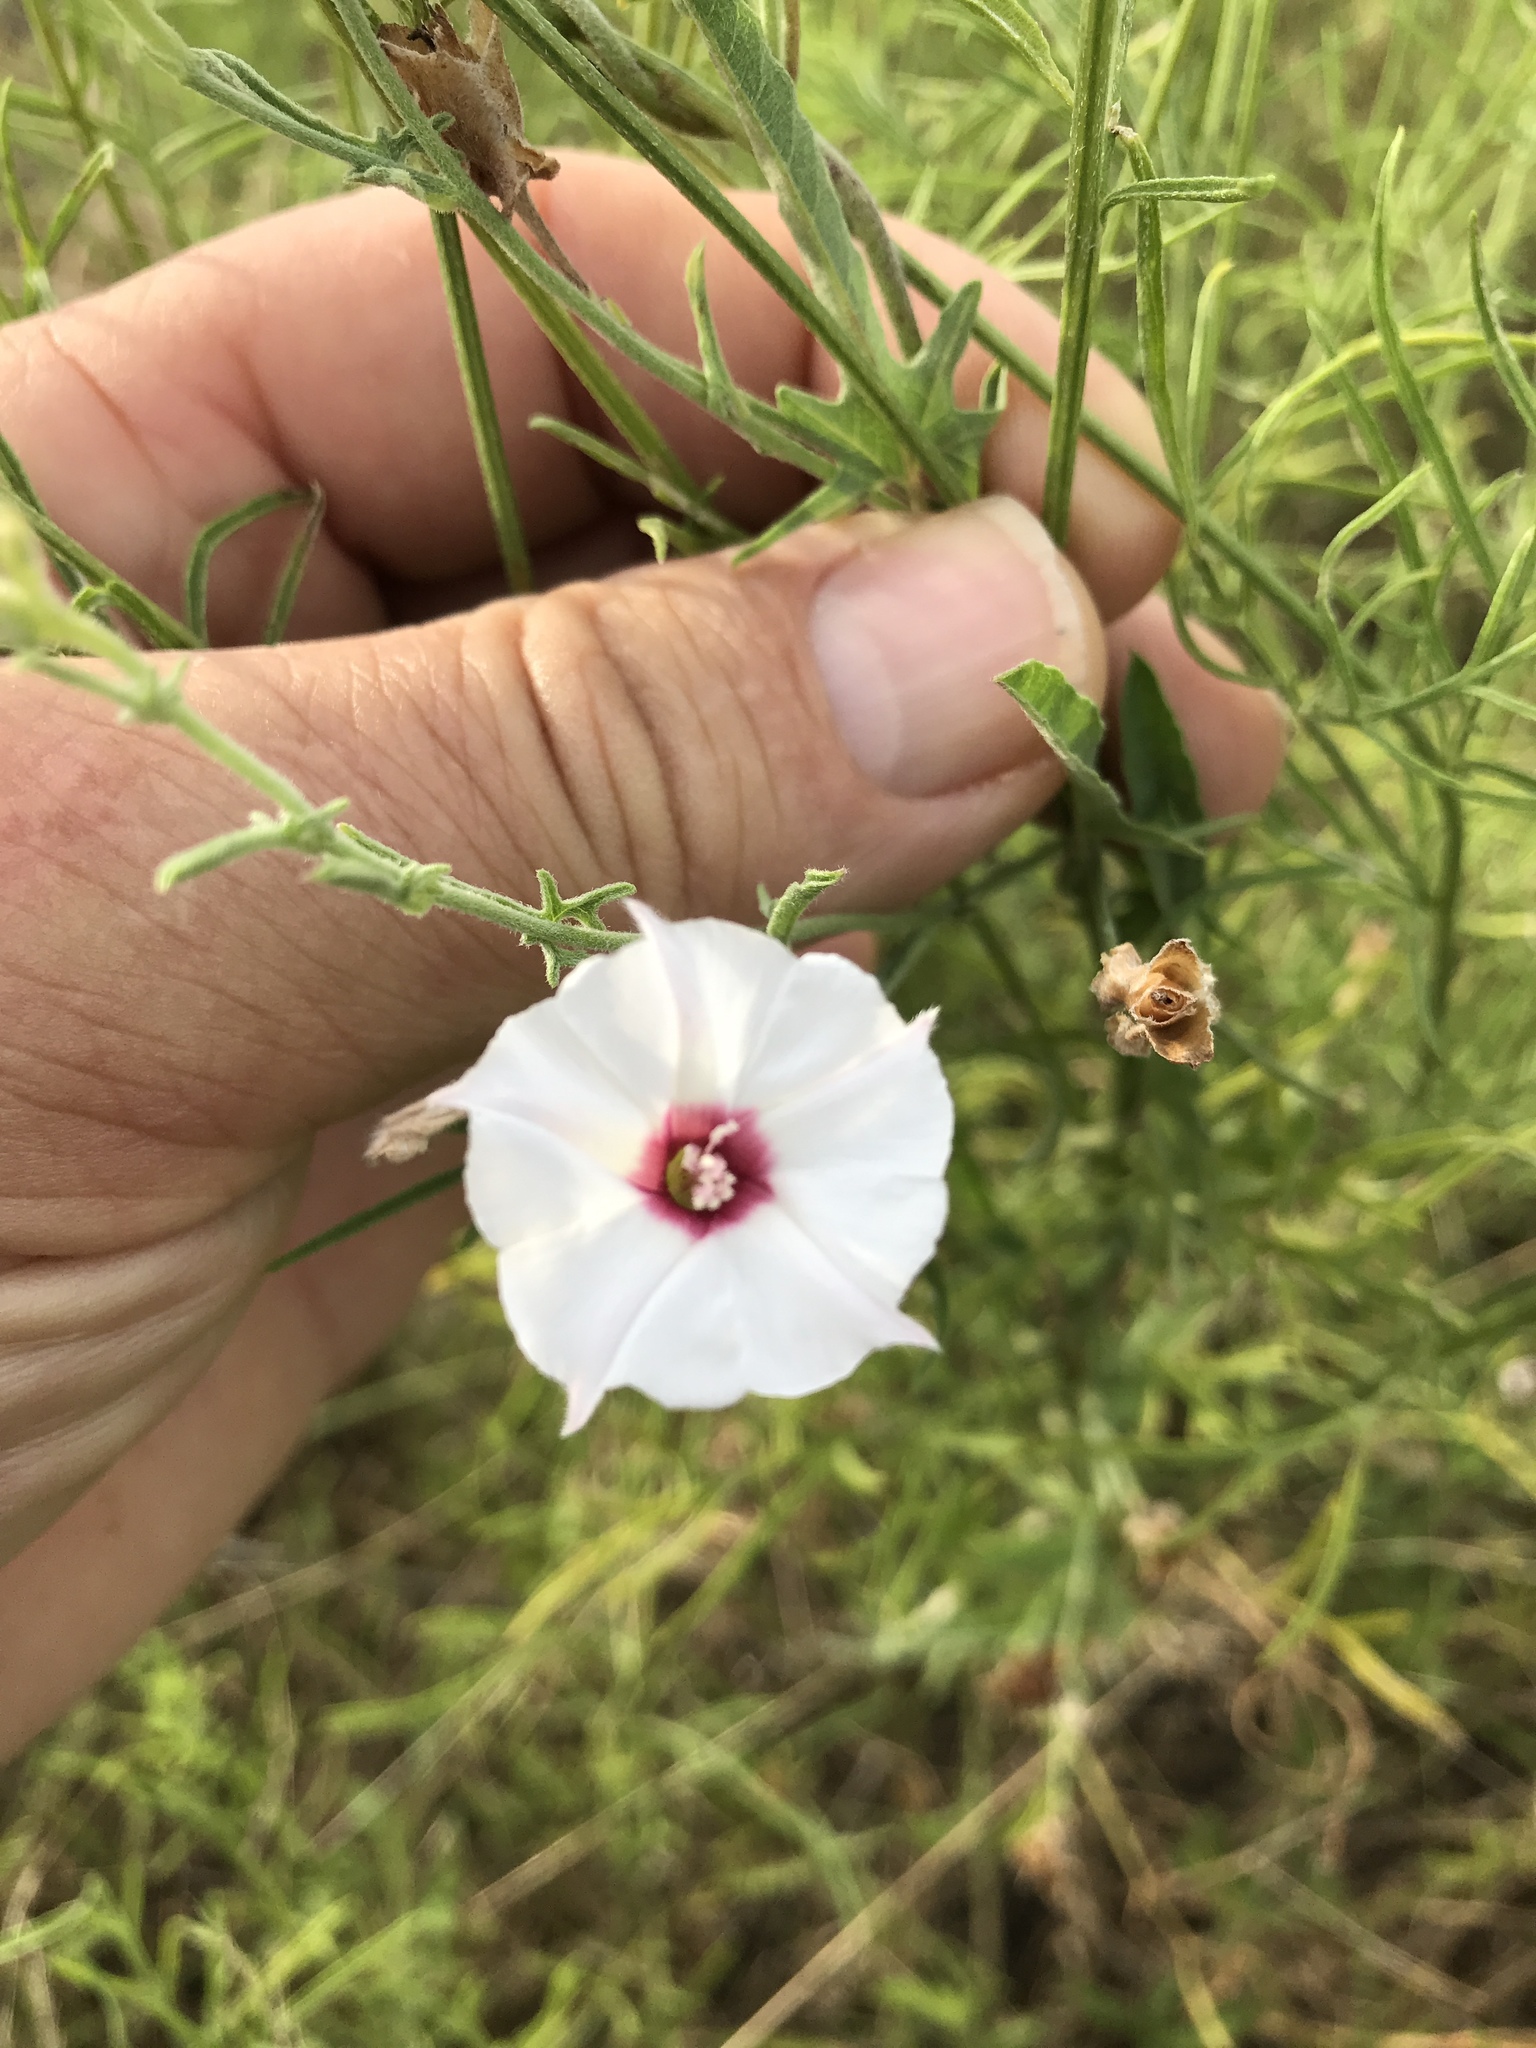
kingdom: Plantae
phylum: Tracheophyta
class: Magnoliopsida
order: Solanales
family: Convolvulaceae
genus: Convolvulus
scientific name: Convolvulus equitans
